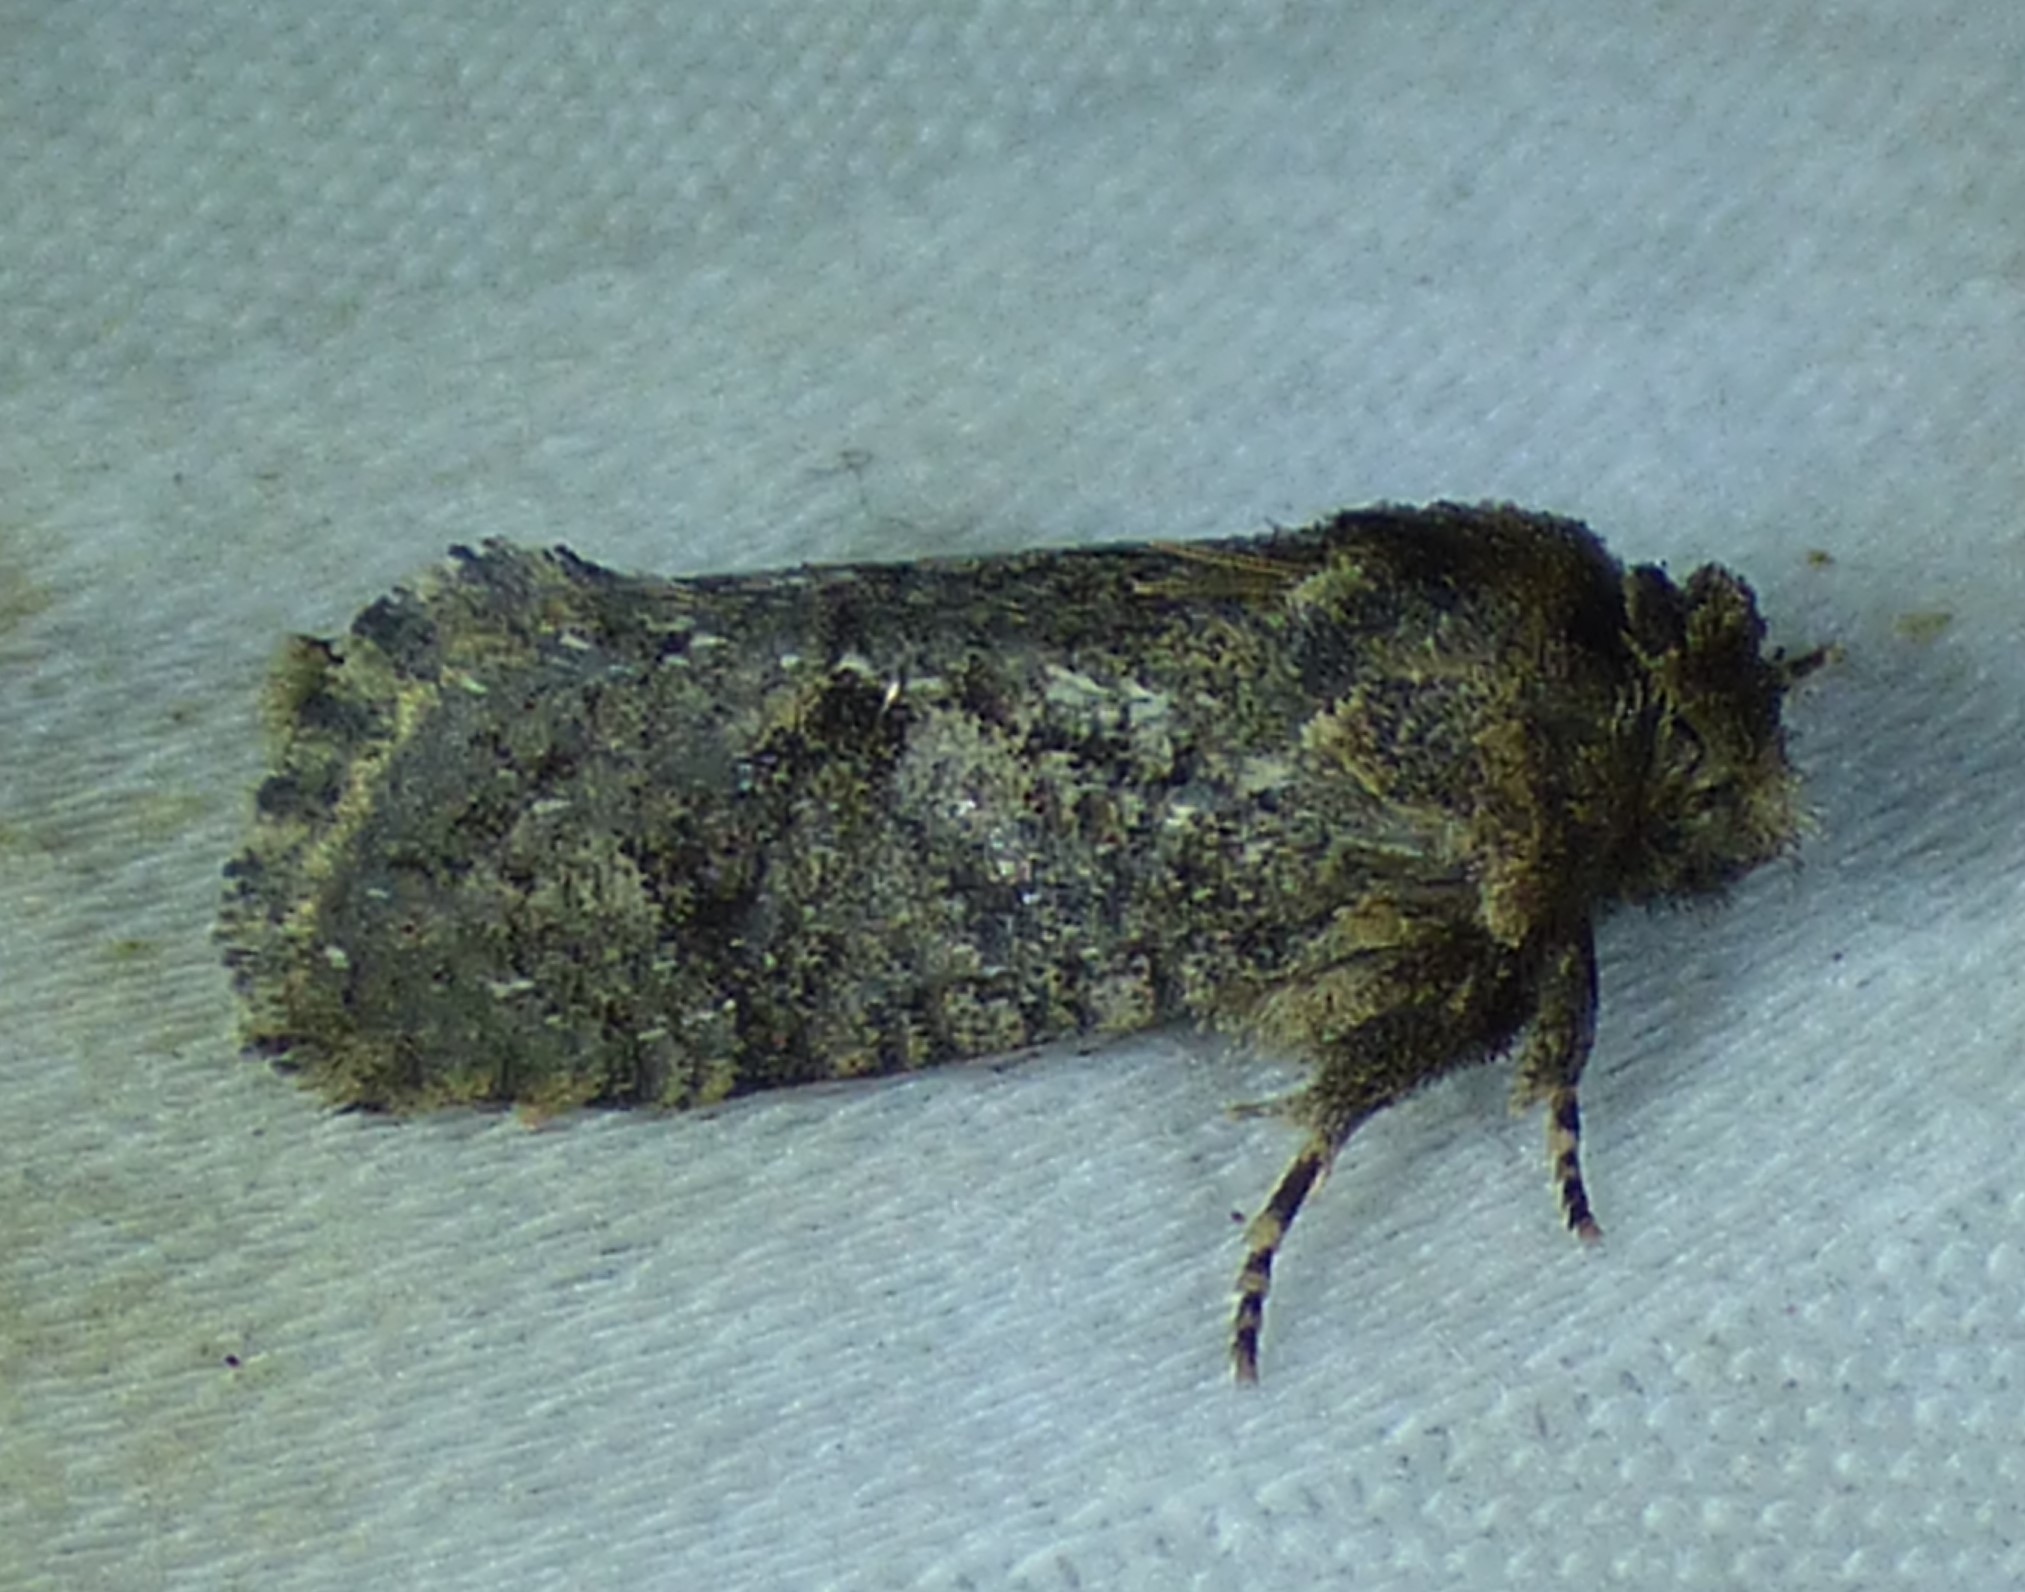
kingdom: Animalia
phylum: Arthropoda
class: Insecta
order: Lepidoptera
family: Tineidae
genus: Acrolophus
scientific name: Acrolophus arcanella
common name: Arcane grass tubeworm moth
